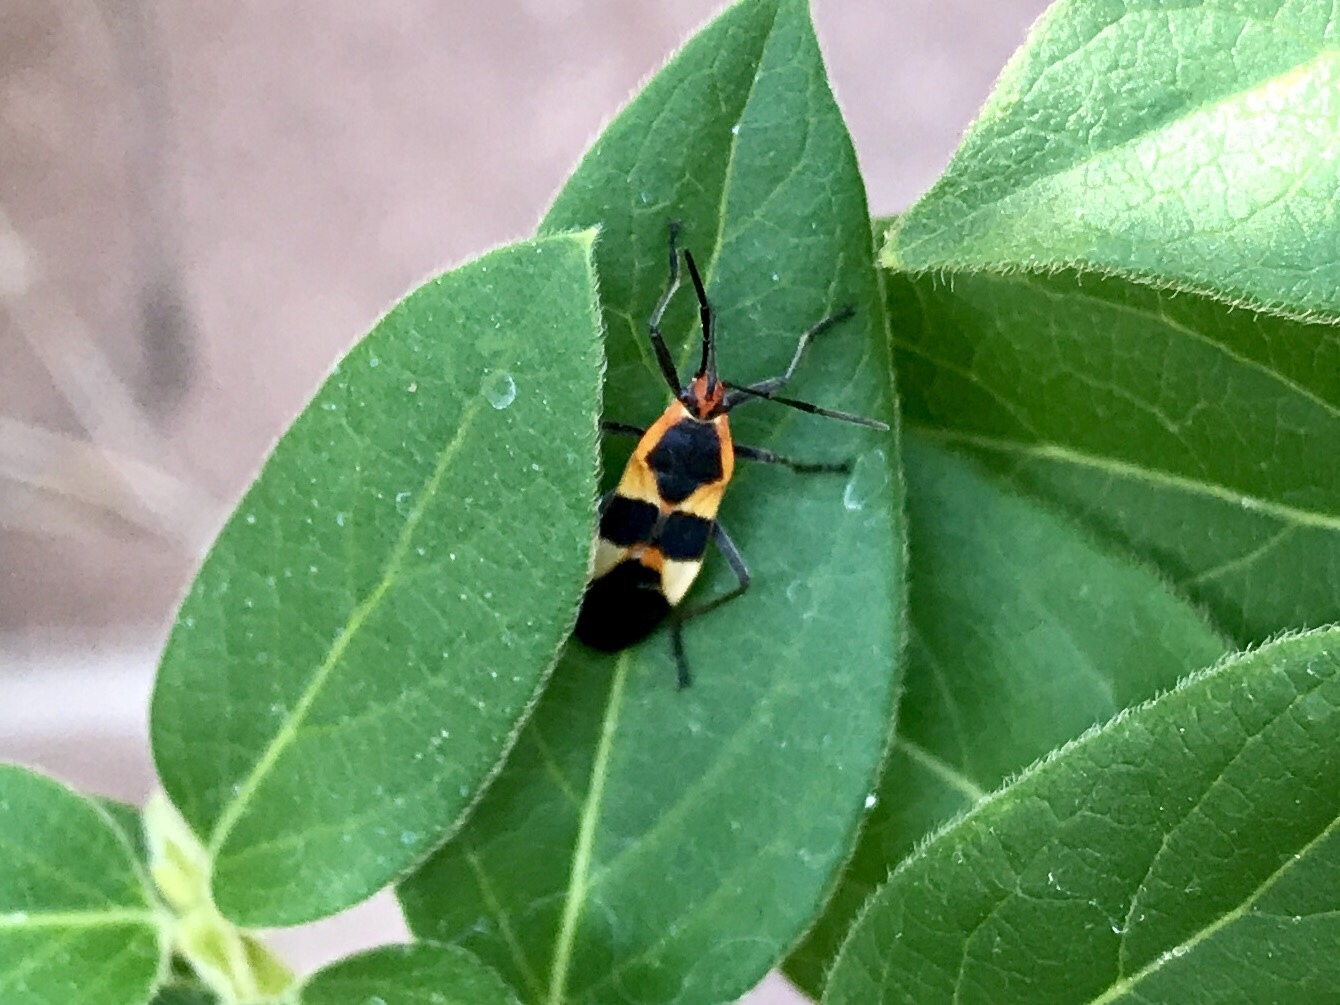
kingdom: Animalia
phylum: Arthropoda
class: Insecta
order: Hemiptera
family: Lygaeidae
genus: Oncopeltus
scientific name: Oncopeltus fasciatus
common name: Large milkweed bug
